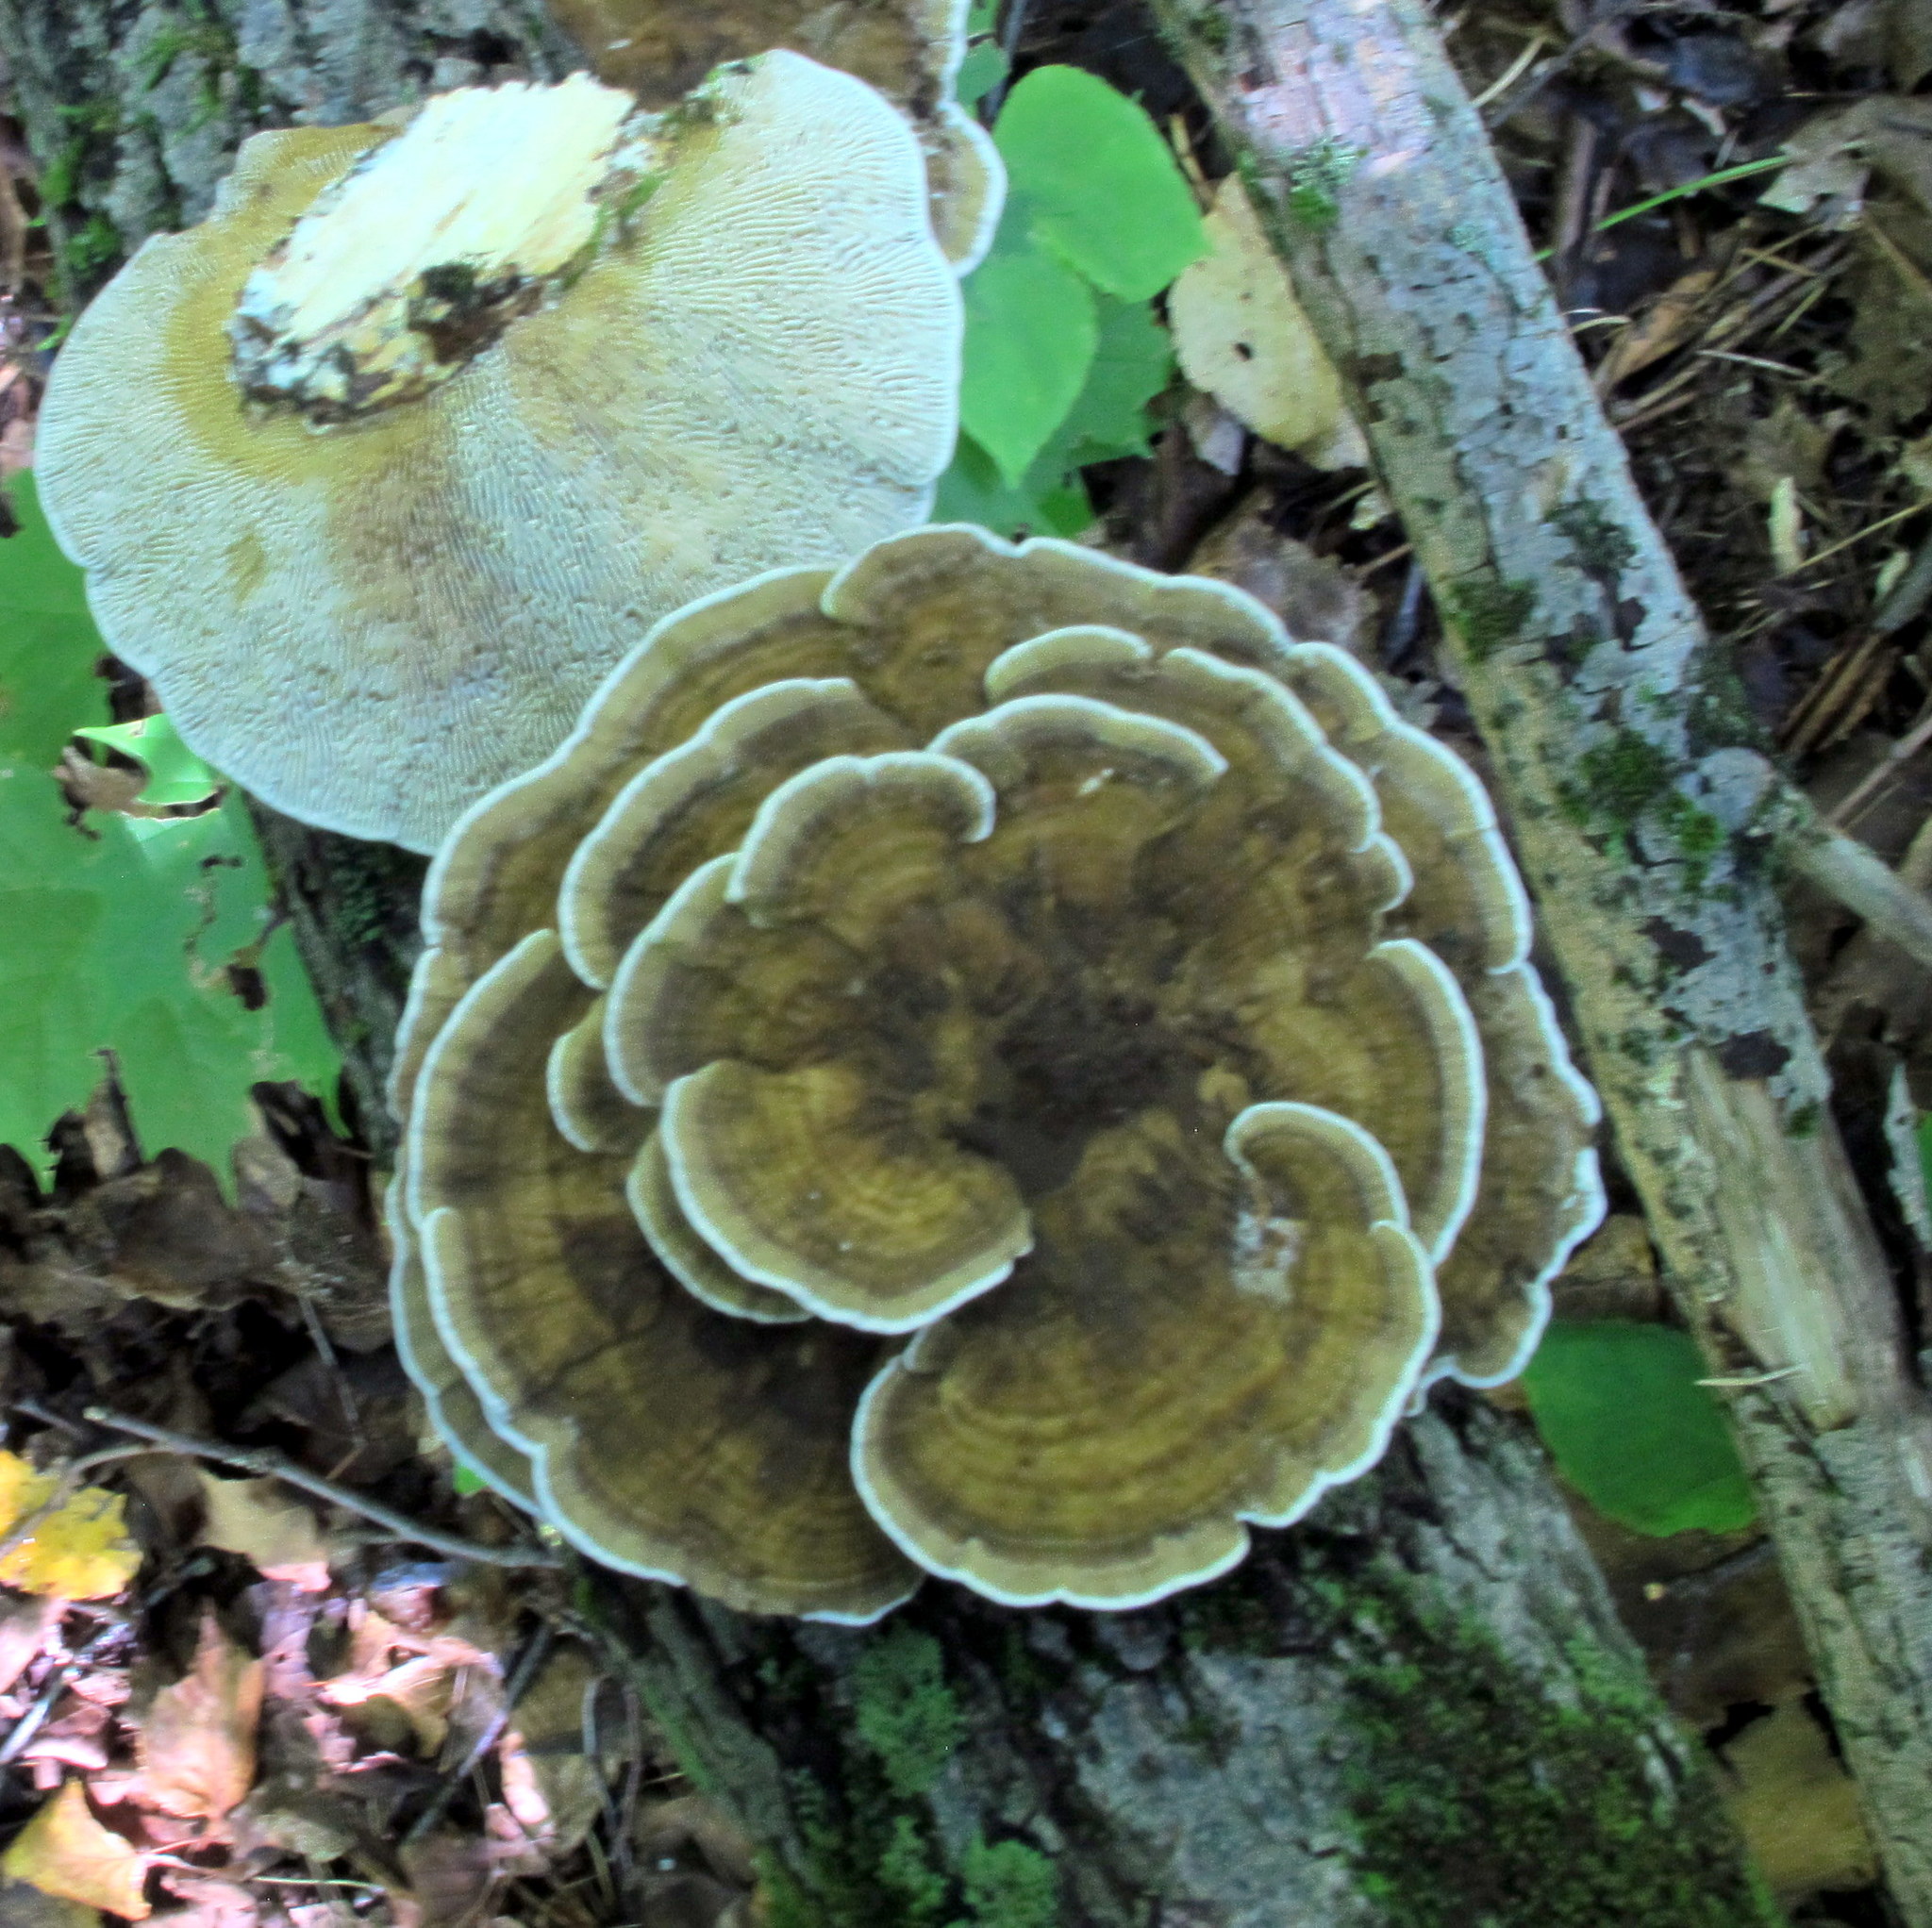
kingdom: Fungi
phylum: Basidiomycota
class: Agaricomycetes
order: Polyporales
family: Polyporaceae
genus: Daedaleopsis
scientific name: Daedaleopsis confragosa
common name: Blushing bracket
